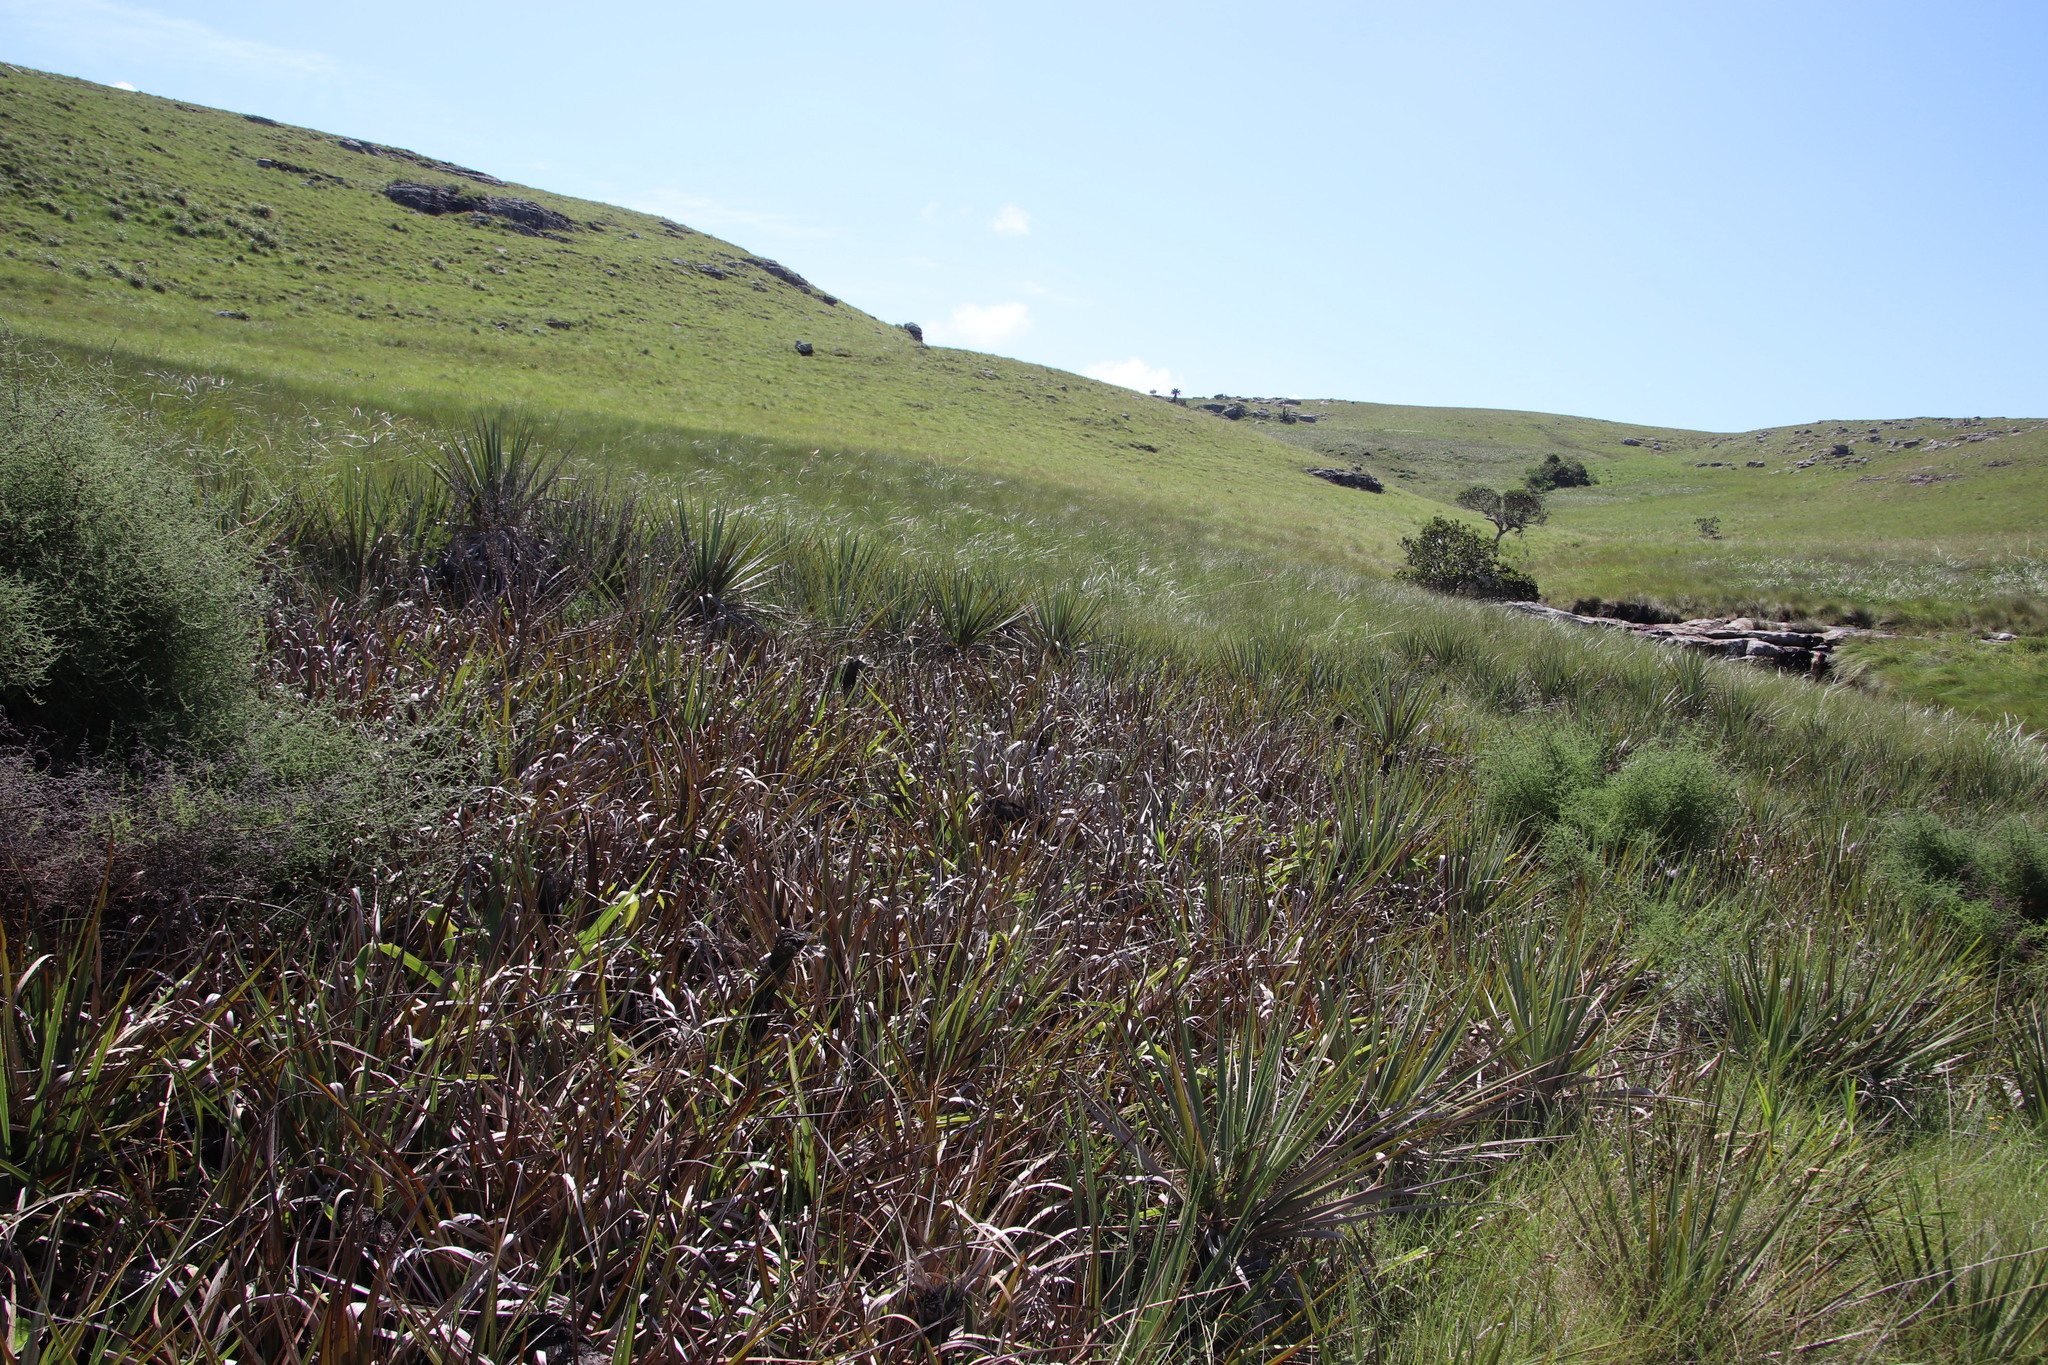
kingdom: Plantae
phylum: Tracheophyta
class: Liliopsida
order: Poales
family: Thurniaceae
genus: Prionium
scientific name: Prionium serratum
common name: Palmiet
